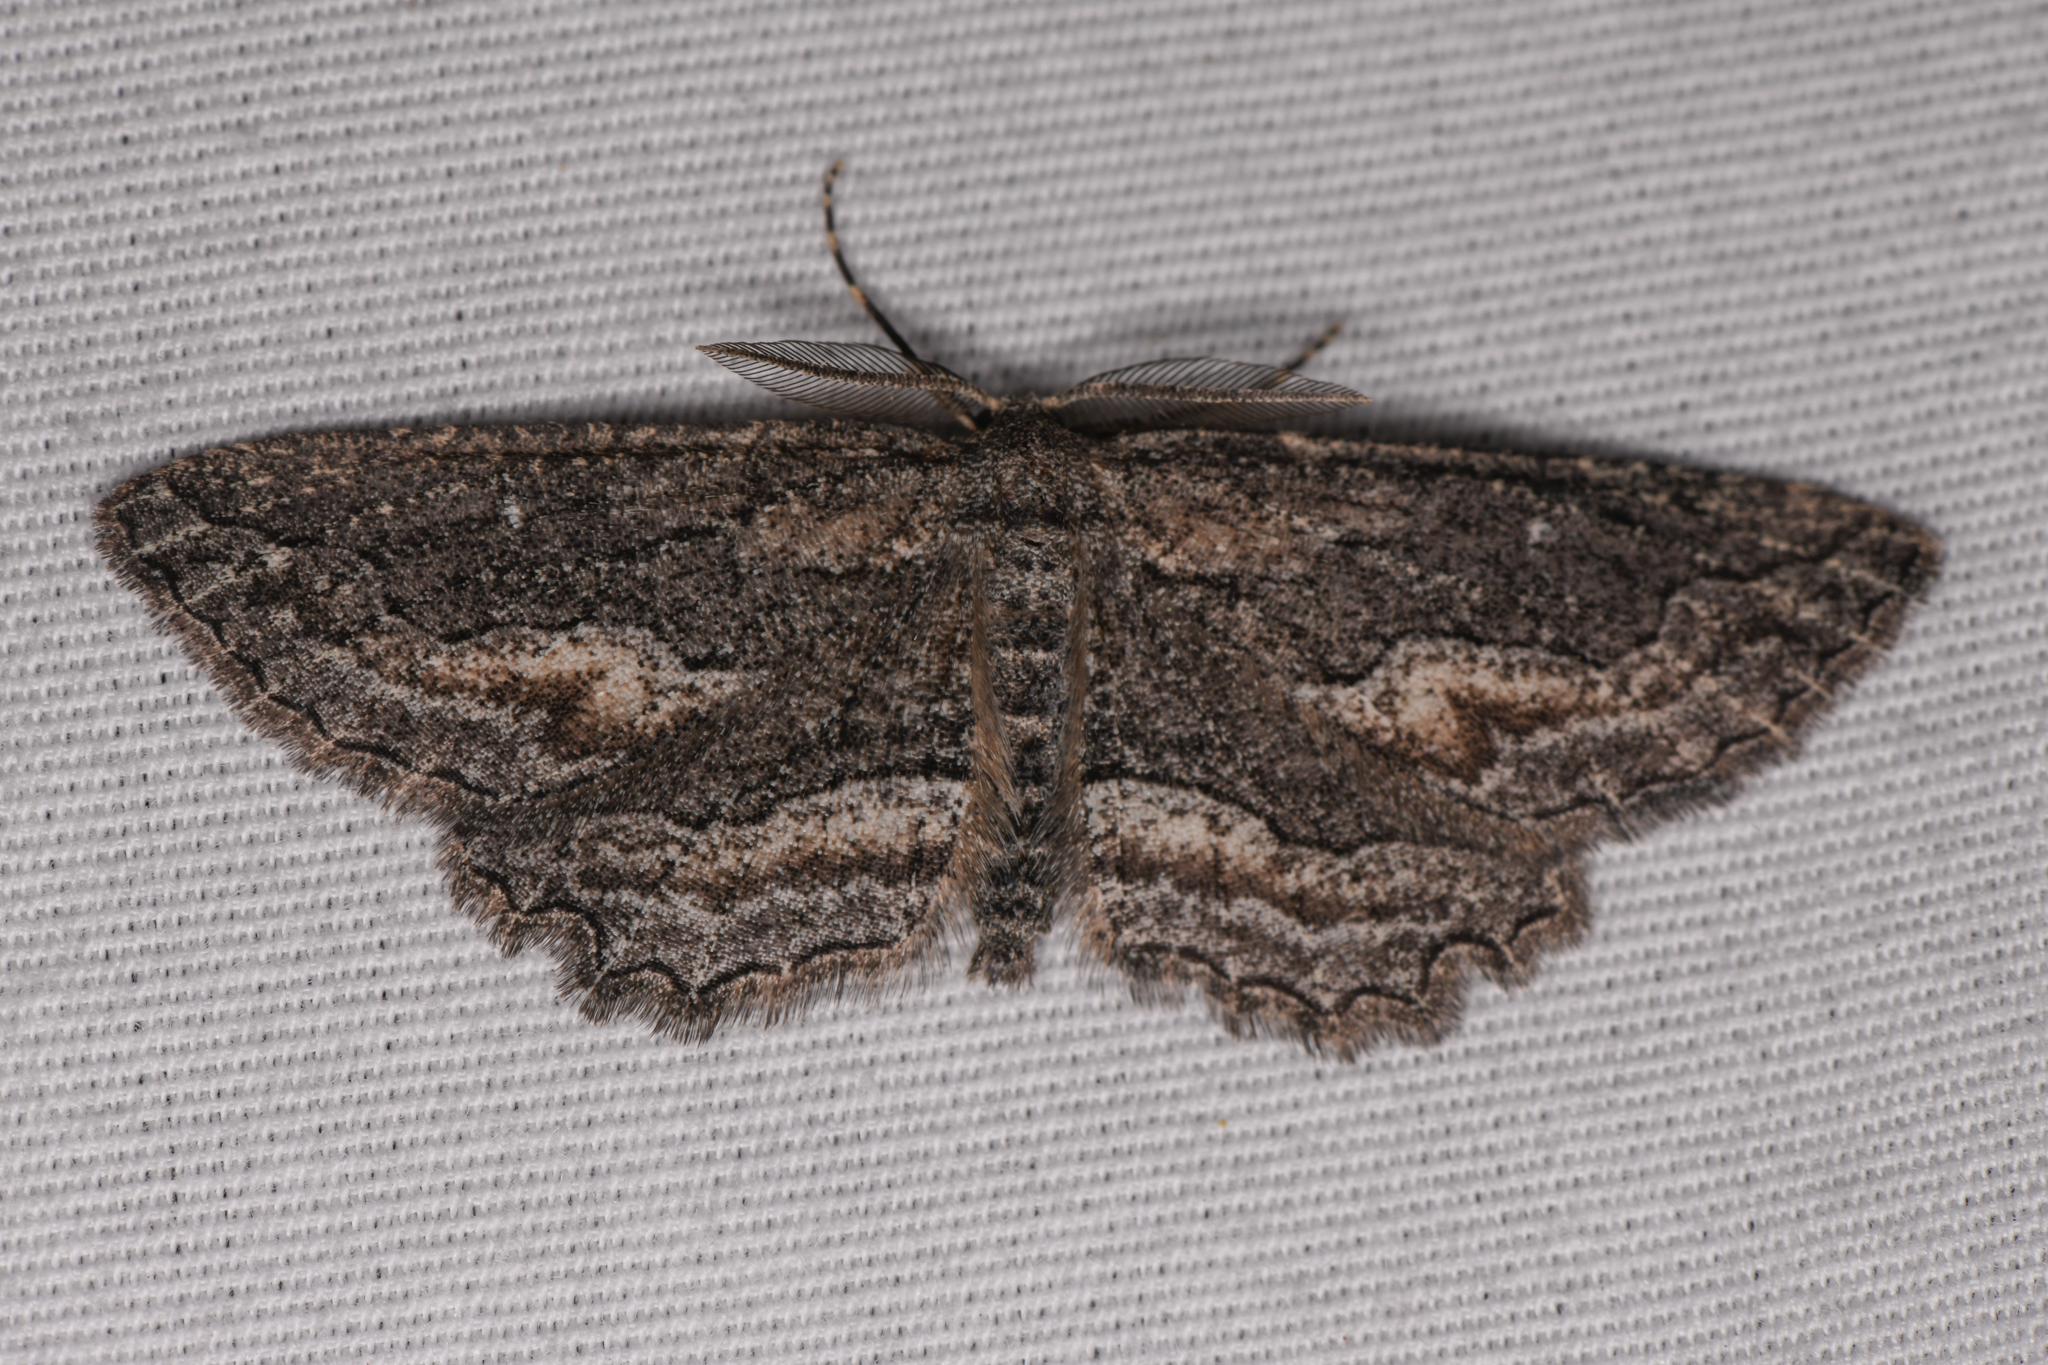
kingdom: Animalia
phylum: Arthropoda
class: Insecta
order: Lepidoptera
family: Geometridae
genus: Aethaloida
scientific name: Aethaloida packardaria
